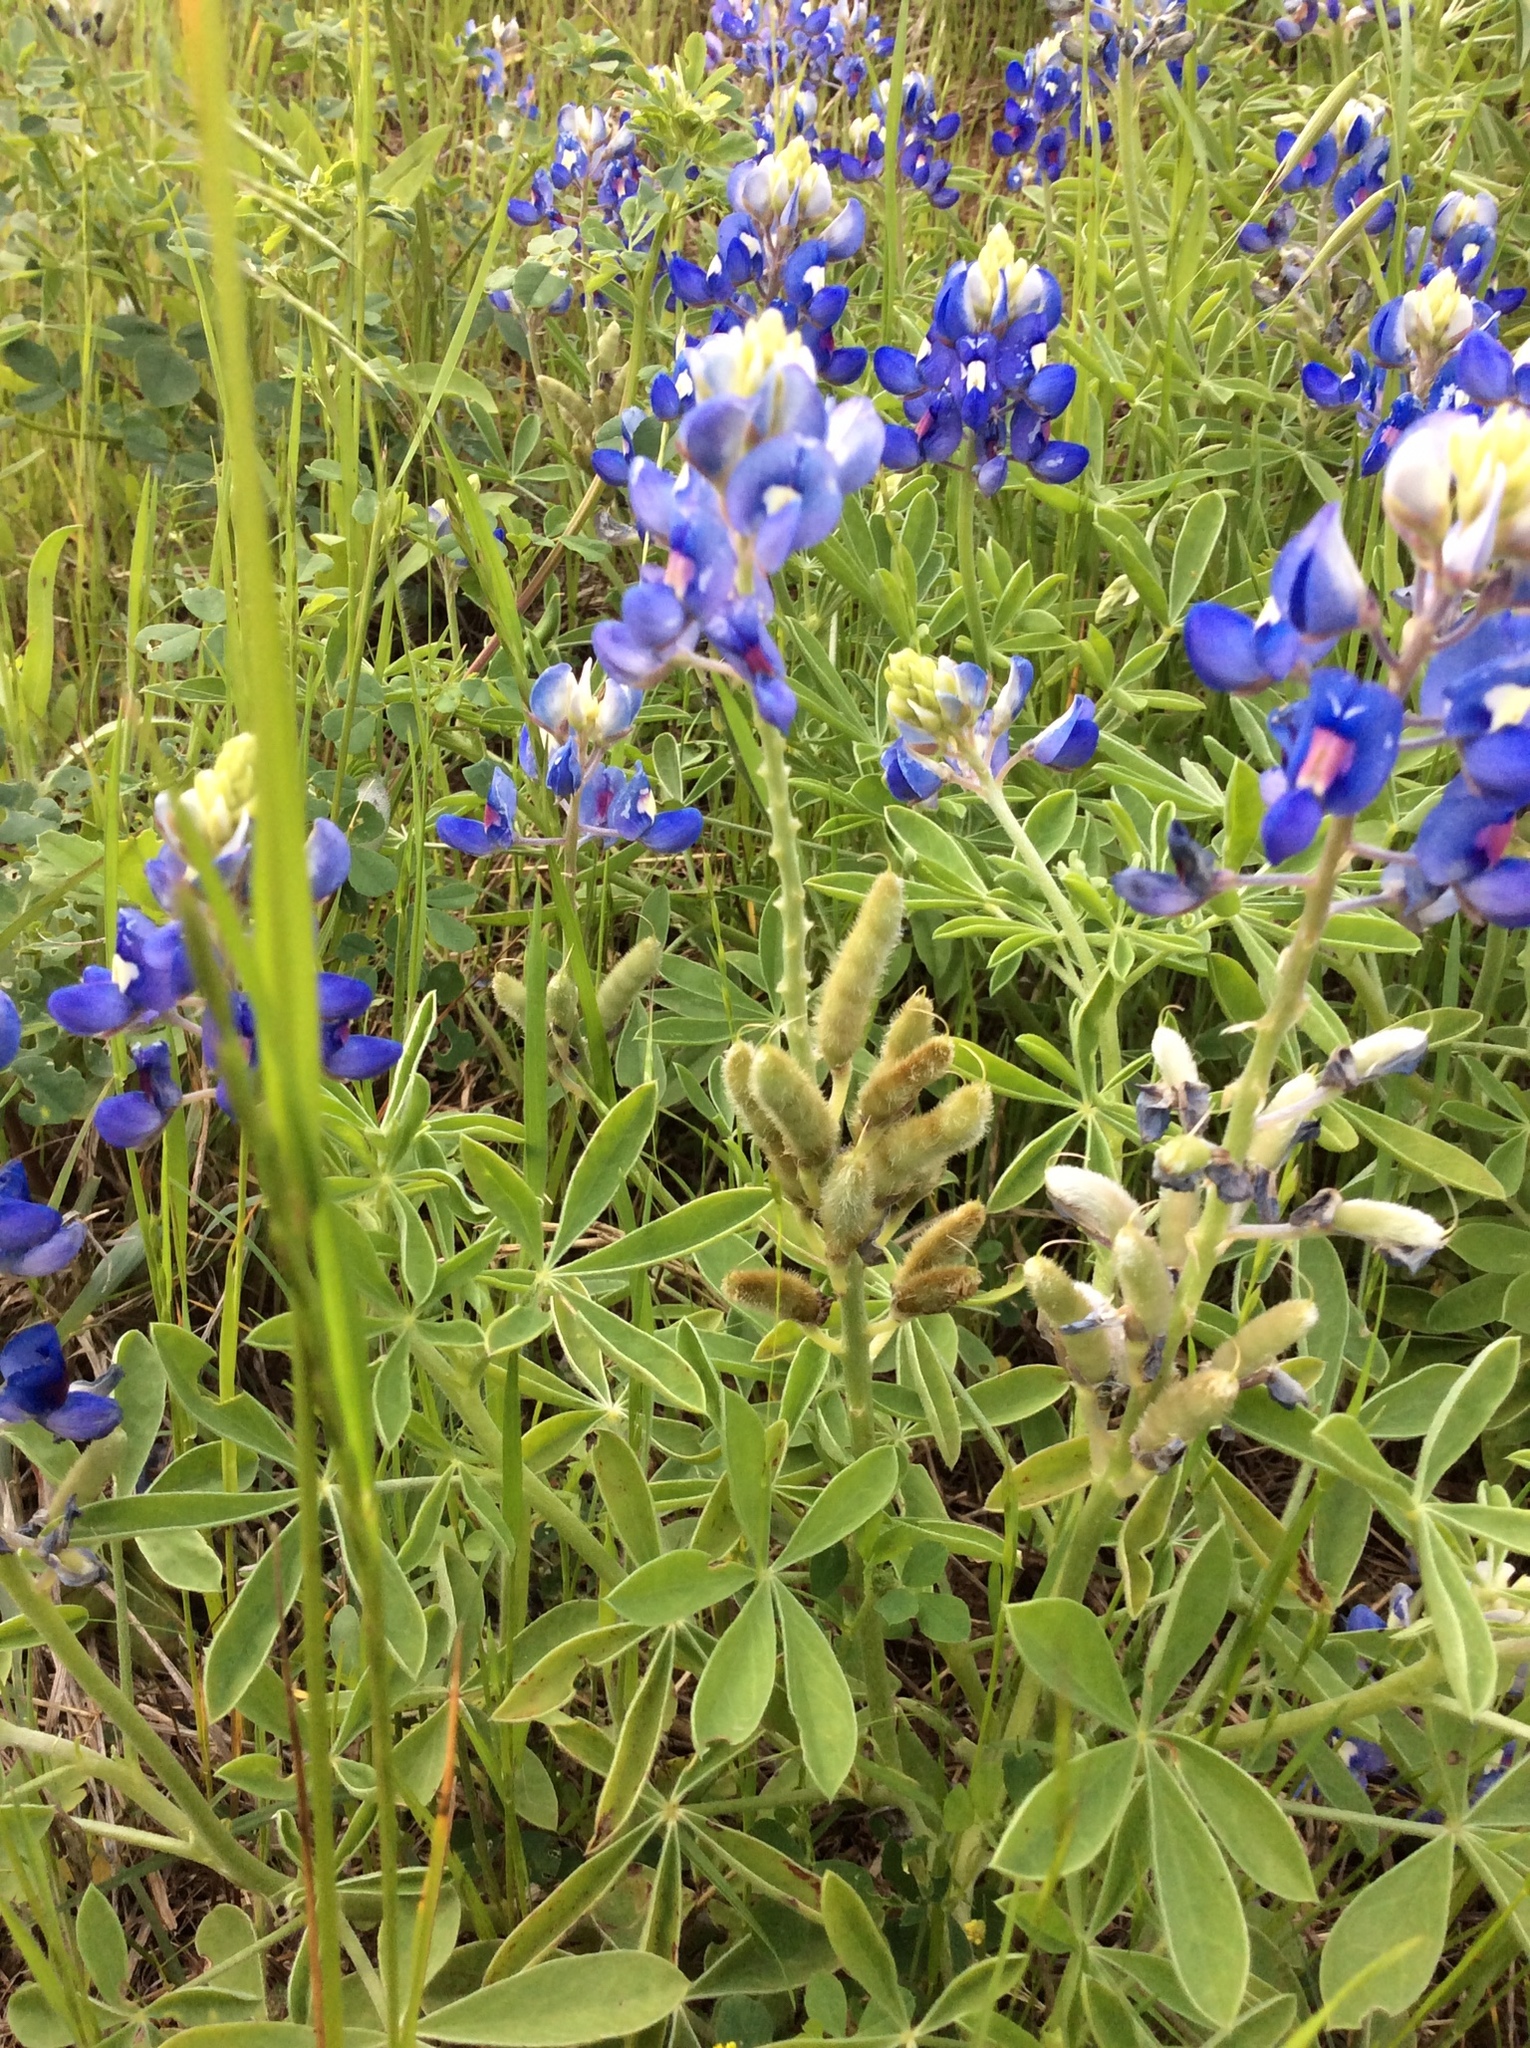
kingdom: Plantae
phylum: Tracheophyta
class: Magnoliopsida
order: Fabales
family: Fabaceae
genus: Lupinus
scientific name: Lupinus texensis
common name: Texas bluebonnet
